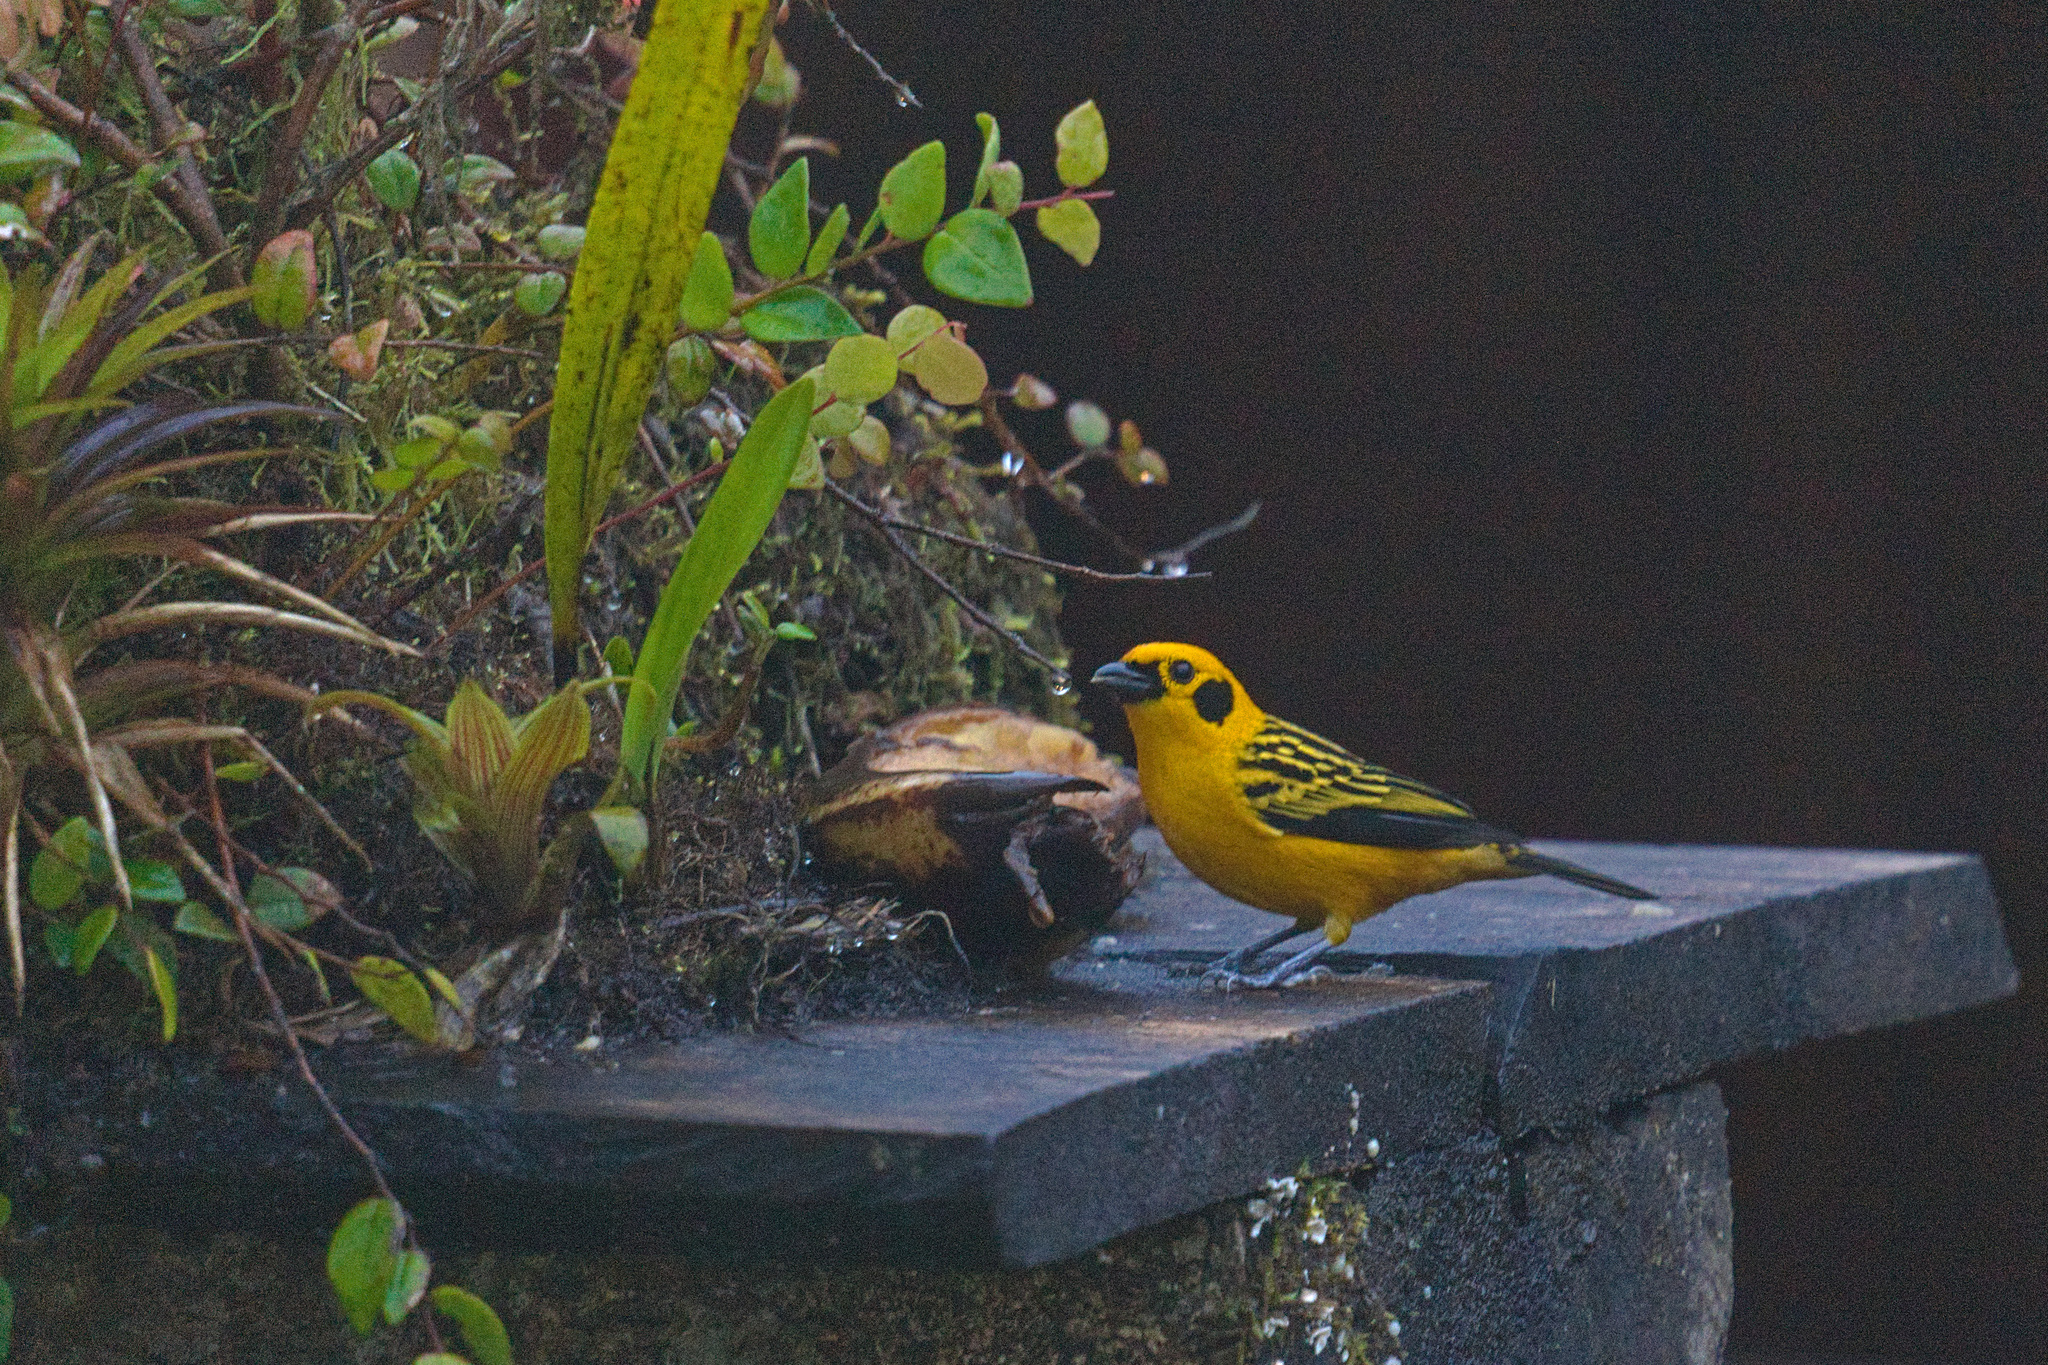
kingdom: Animalia
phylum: Chordata
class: Aves
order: Passeriformes
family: Thraupidae
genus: Tangara
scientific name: Tangara arthus
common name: Golden tanager
